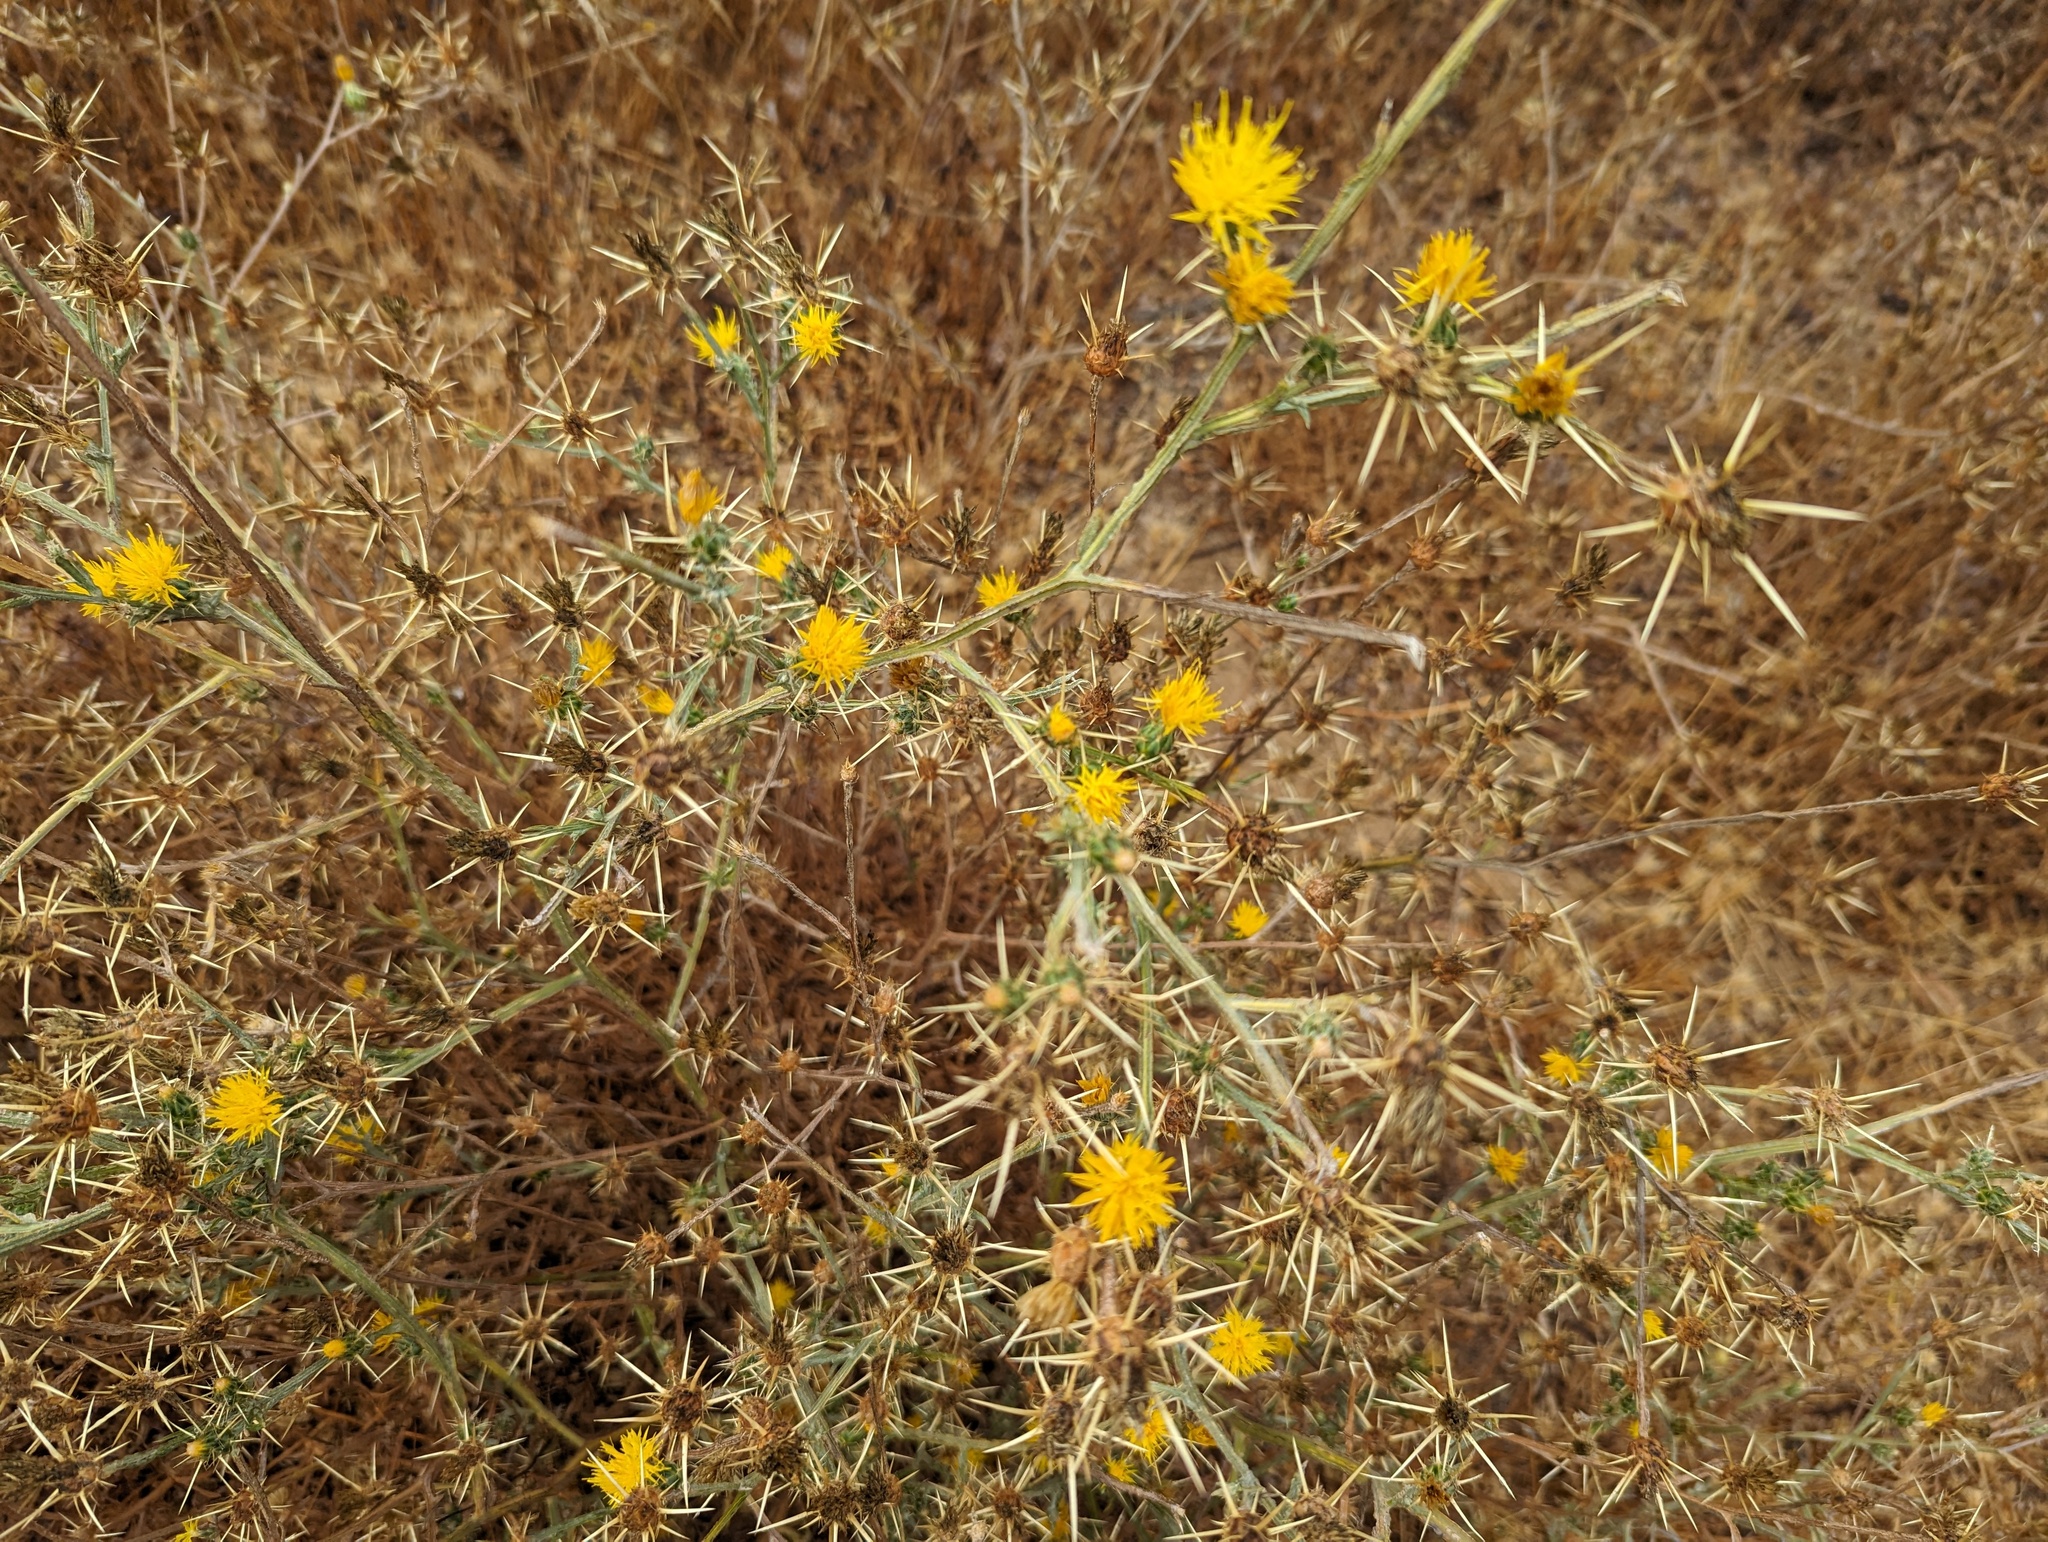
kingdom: Plantae
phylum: Tracheophyta
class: Magnoliopsida
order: Asterales
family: Asteraceae
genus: Centaurea
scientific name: Centaurea solstitialis
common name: Yellow star-thistle
